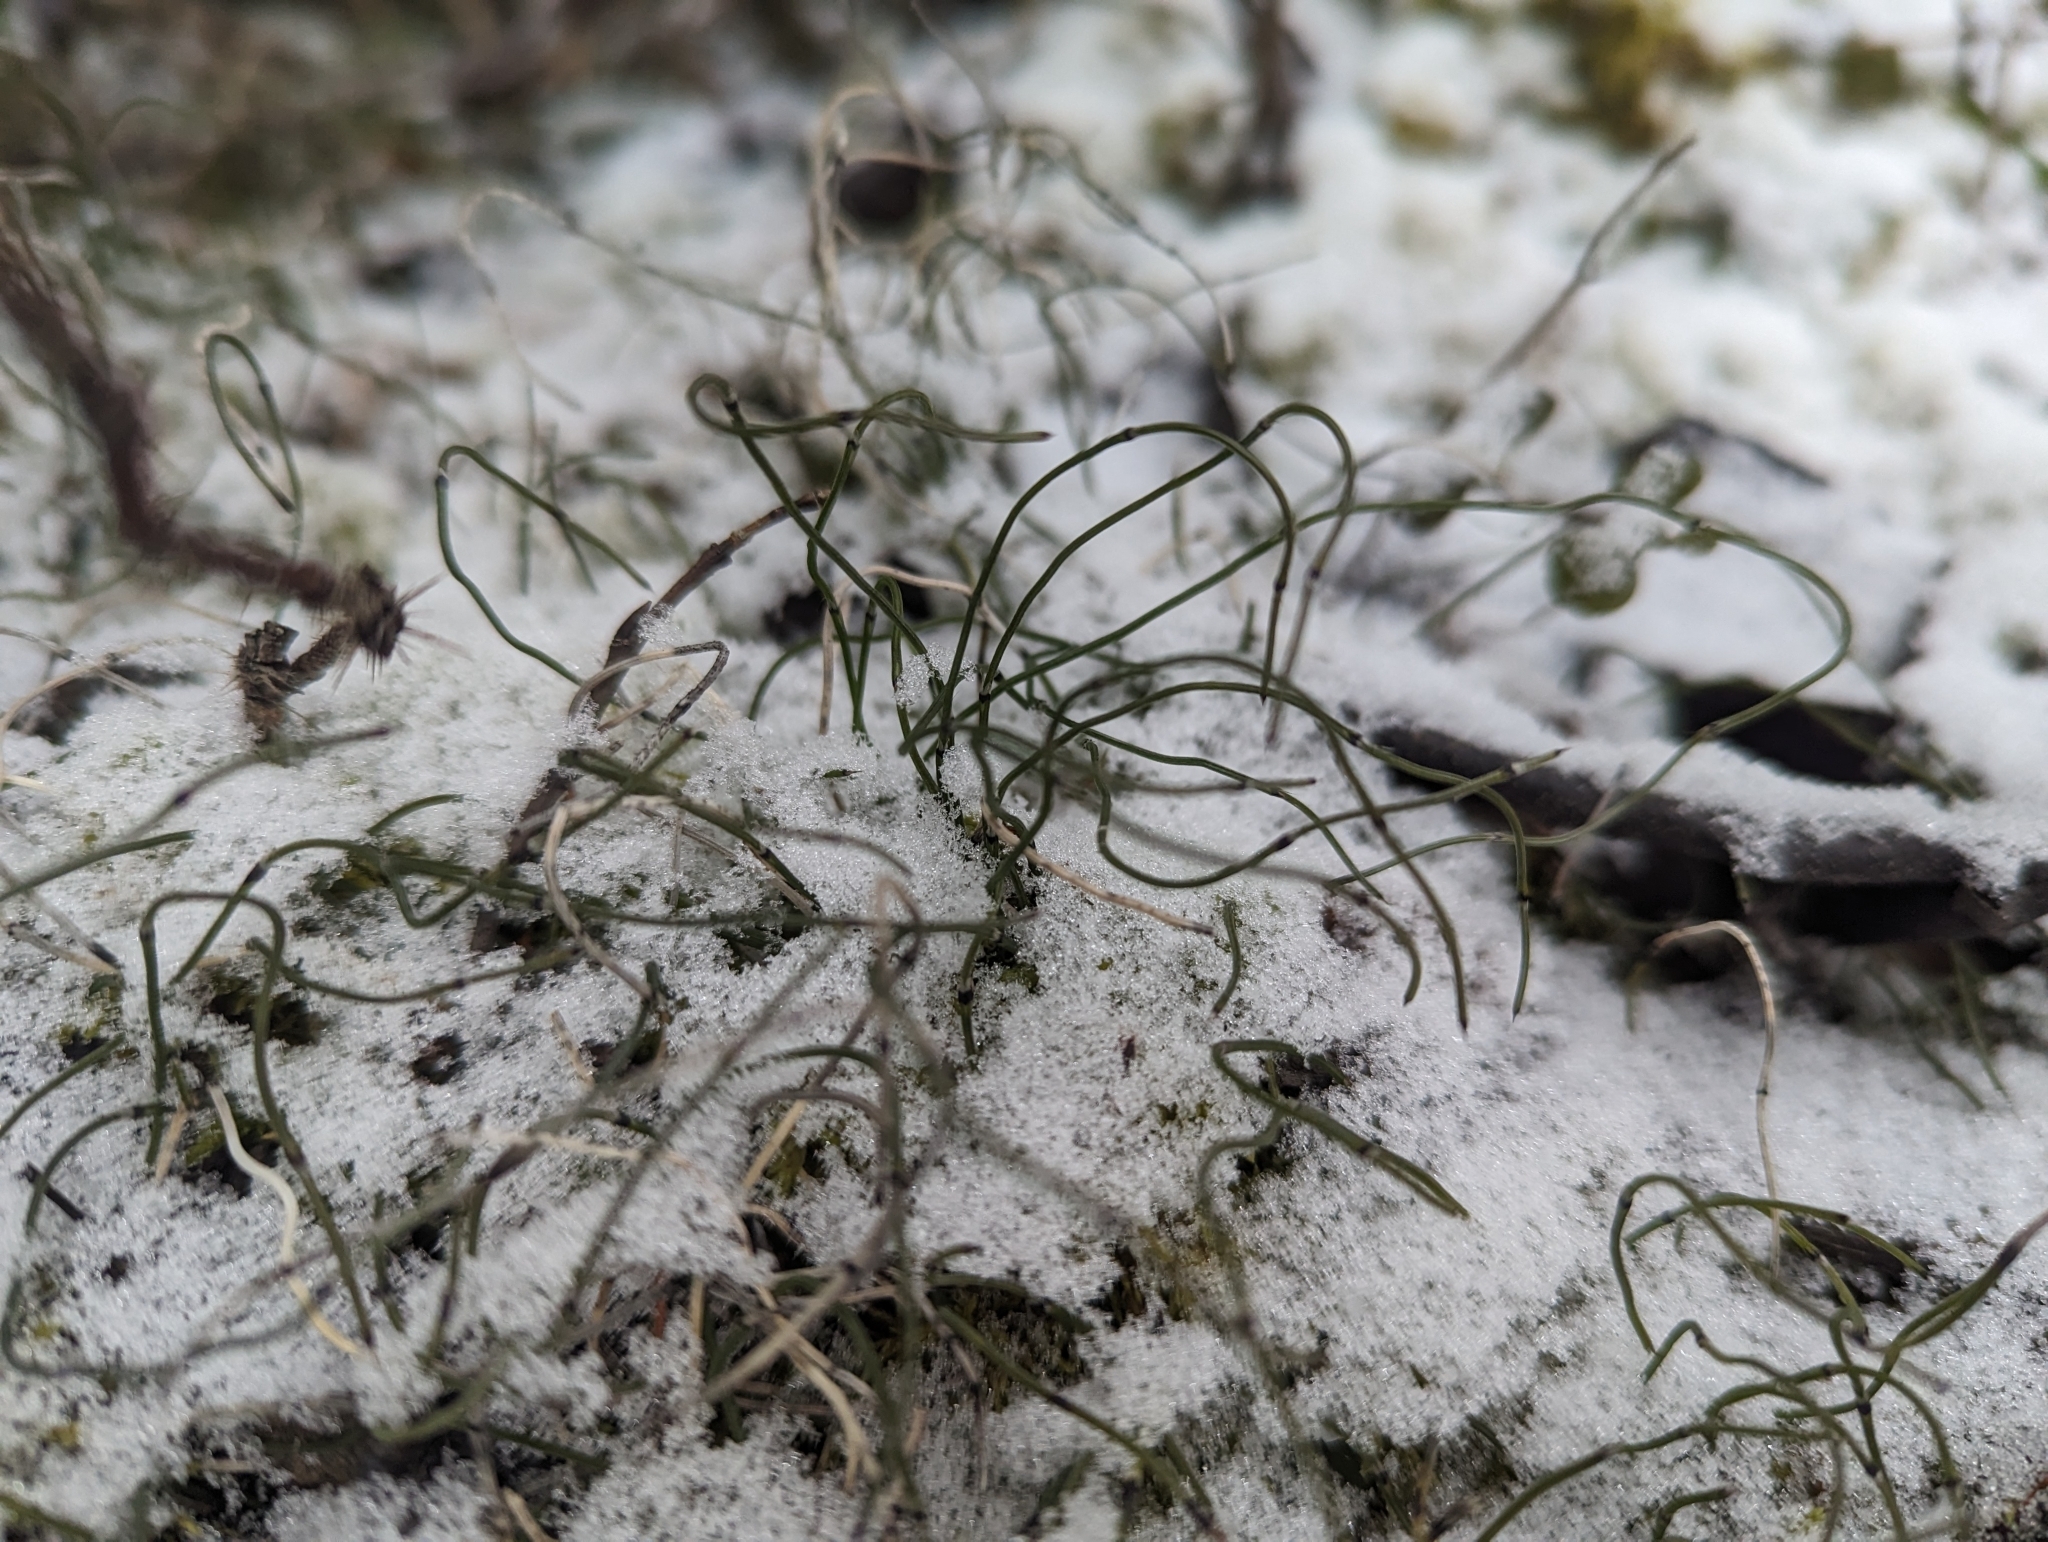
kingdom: Plantae
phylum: Tracheophyta
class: Polypodiopsida
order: Equisetales
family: Equisetaceae
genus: Equisetum
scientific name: Equisetum scirpoides
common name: Delicate horsetail
